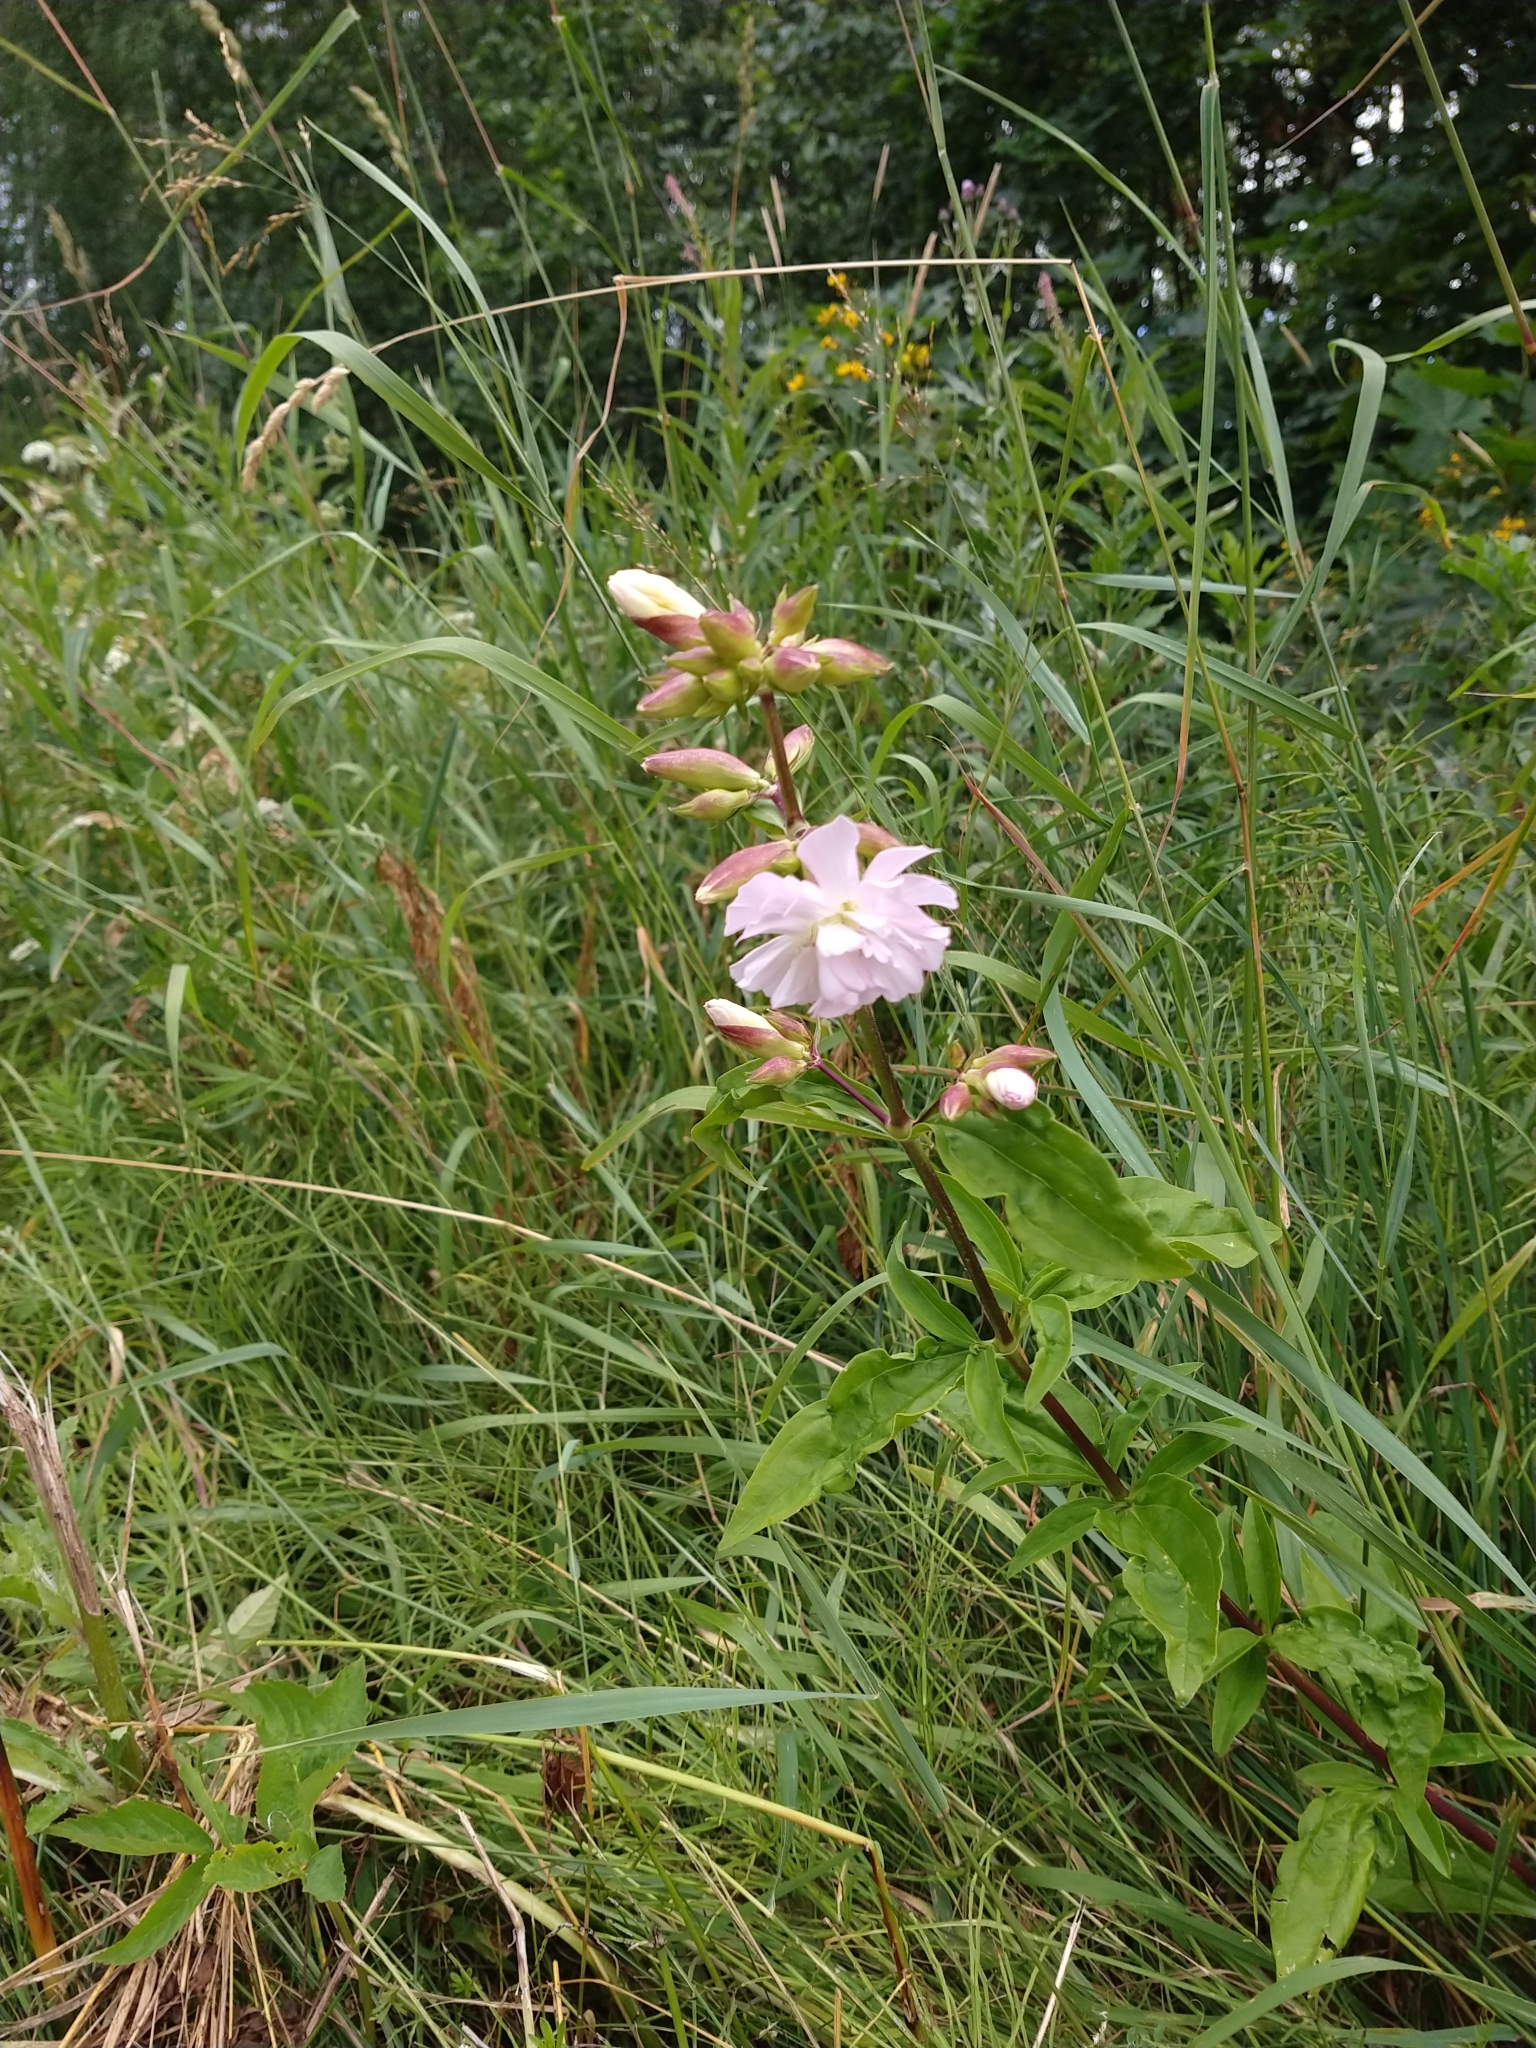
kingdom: Plantae
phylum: Tracheophyta
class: Magnoliopsida
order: Caryophyllales
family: Caryophyllaceae
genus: Saponaria
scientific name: Saponaria officinalis
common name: Soapwort
